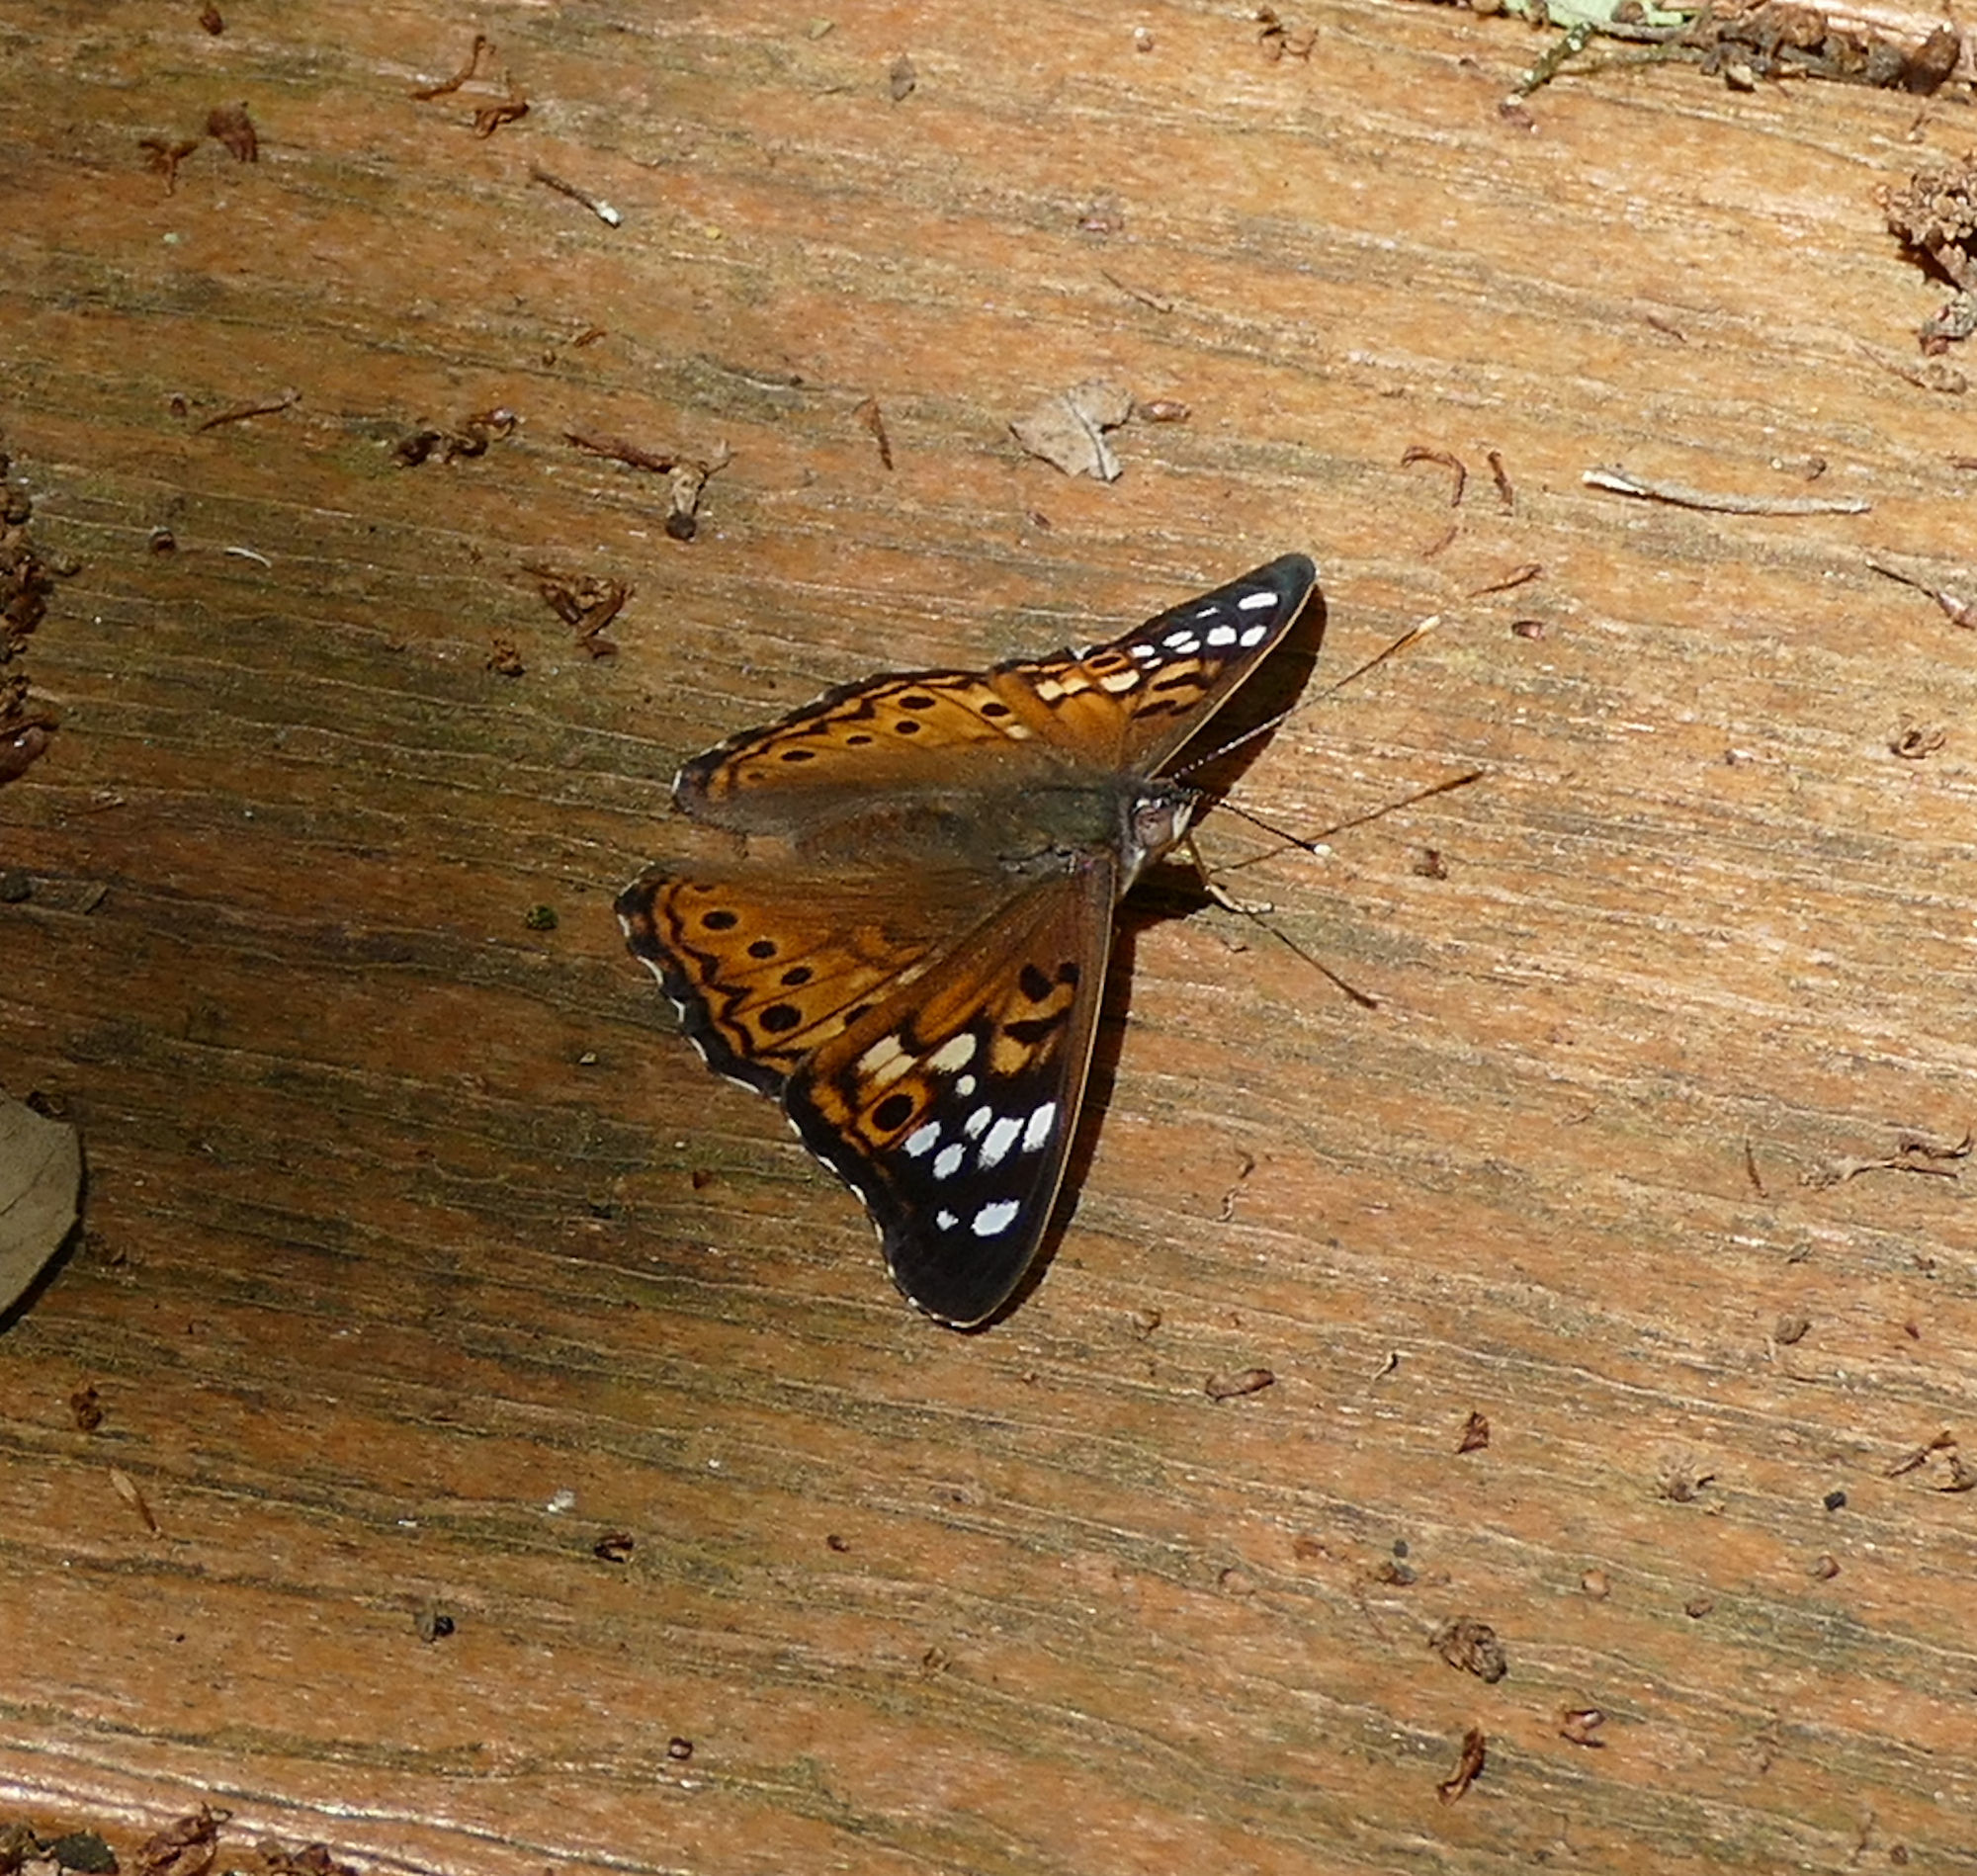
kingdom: Animalia
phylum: Arthropoda
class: Insecta
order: Lepidoptera
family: Nymphalidae
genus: Asterocampa
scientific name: Asterocampa celtis
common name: Hackberry emperor
